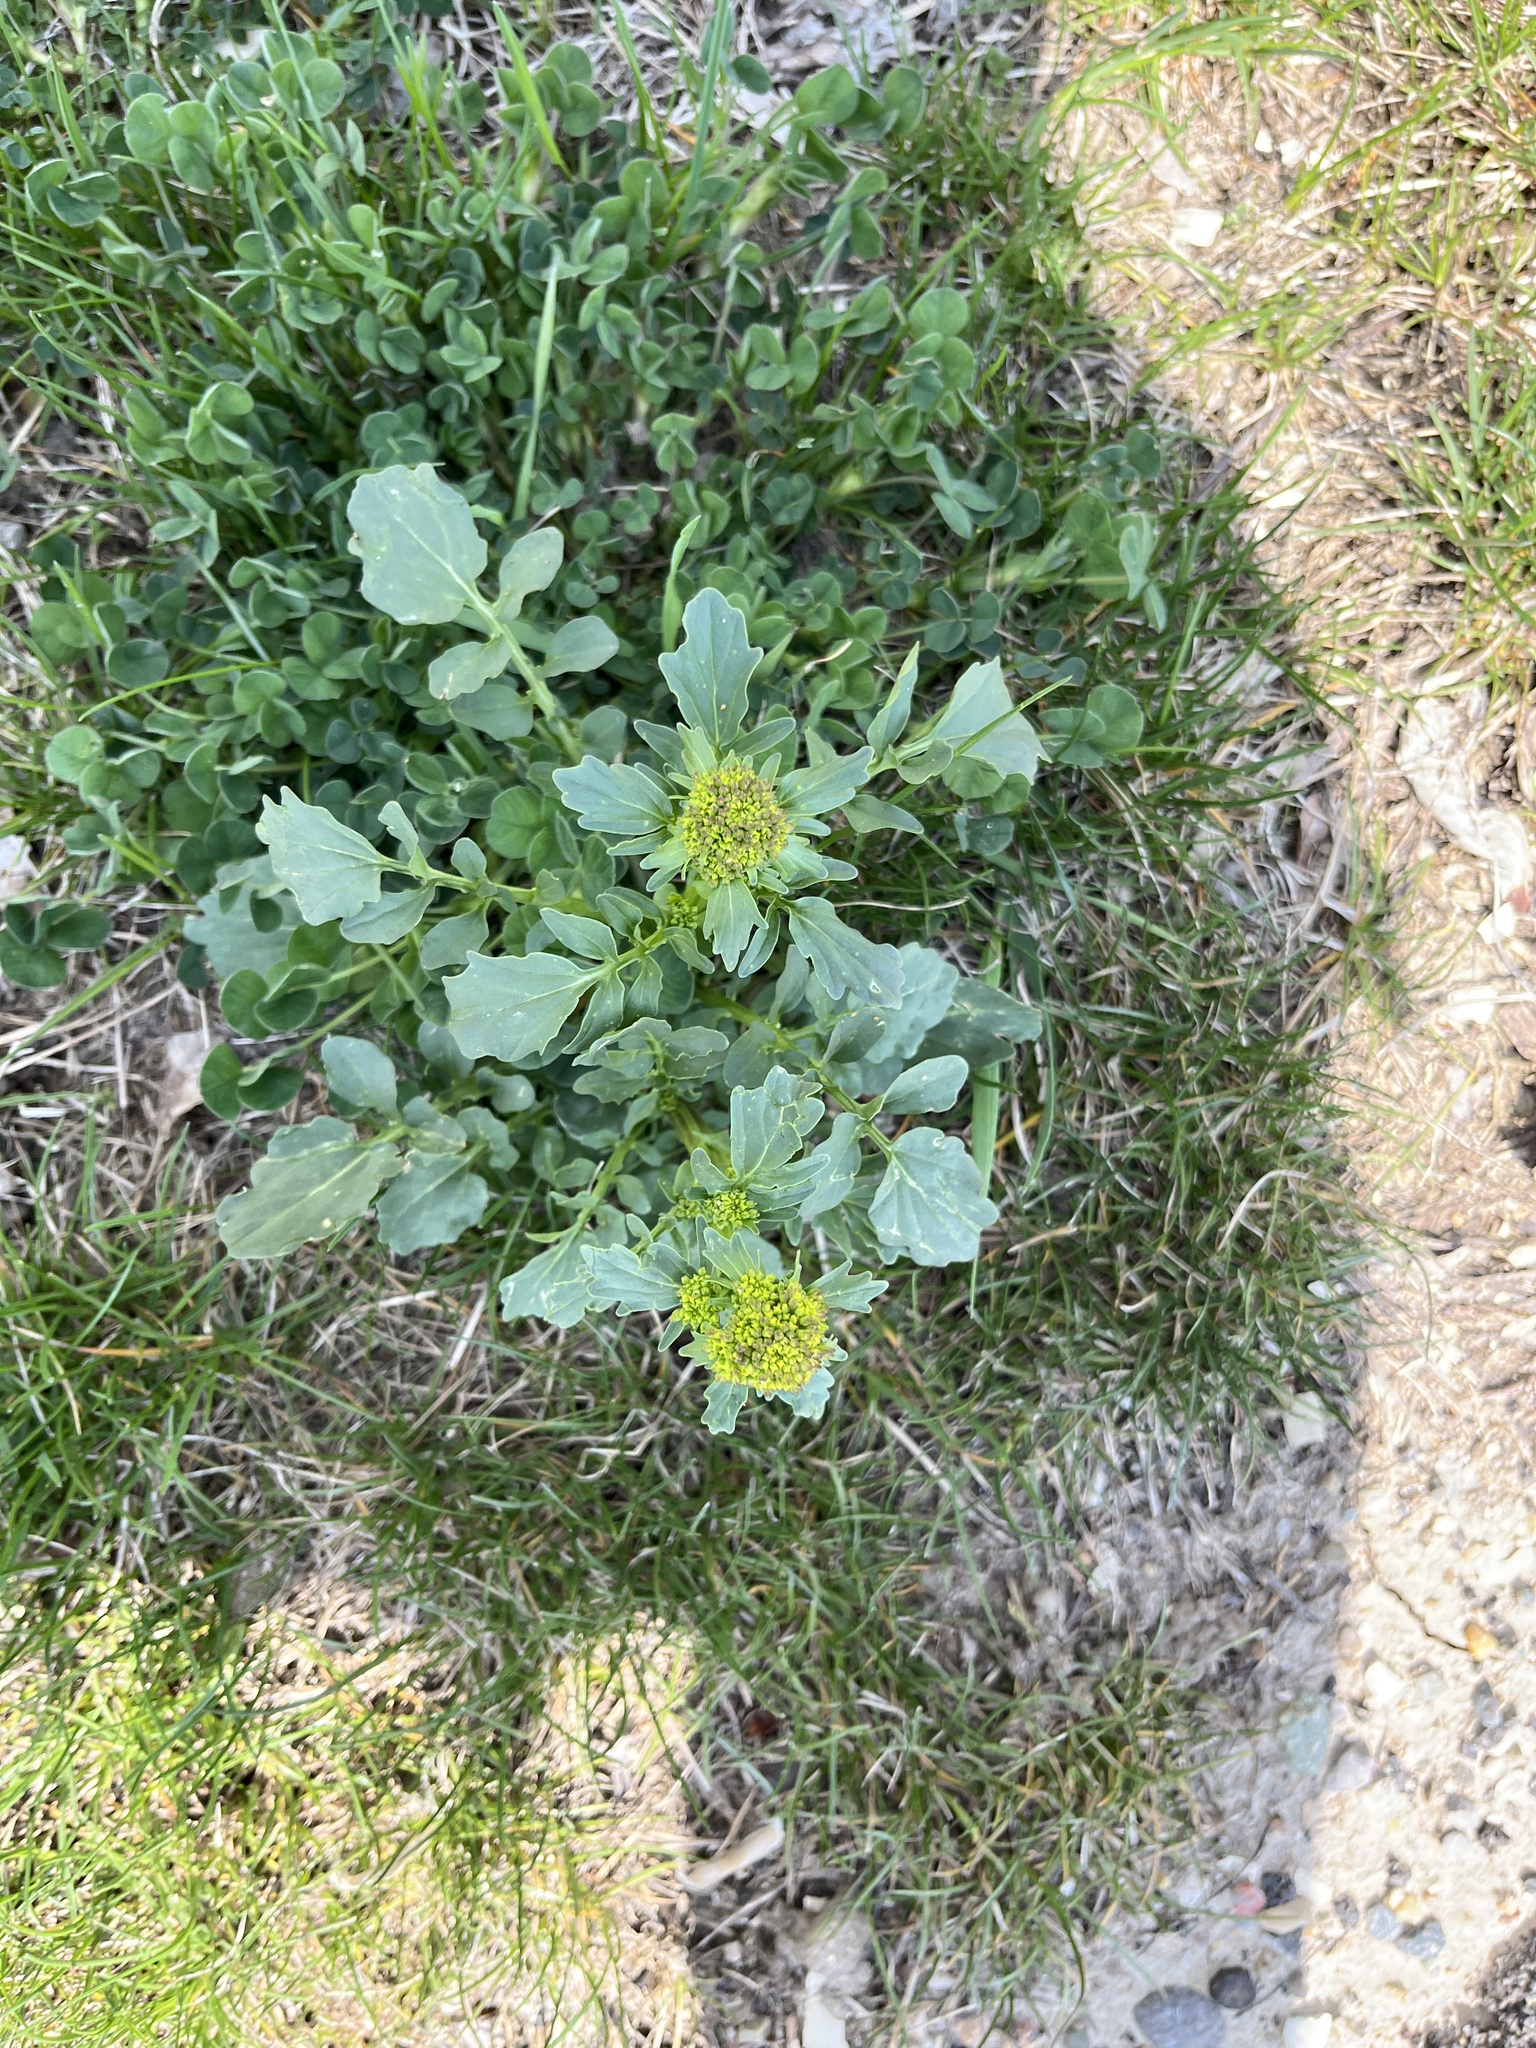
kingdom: Plantae
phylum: Tracheophyta
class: Magnoliopsida
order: Brassicales
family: Brassicaceae
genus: Barbarea
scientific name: Barbarea vulgaris
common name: Cressy-greens
